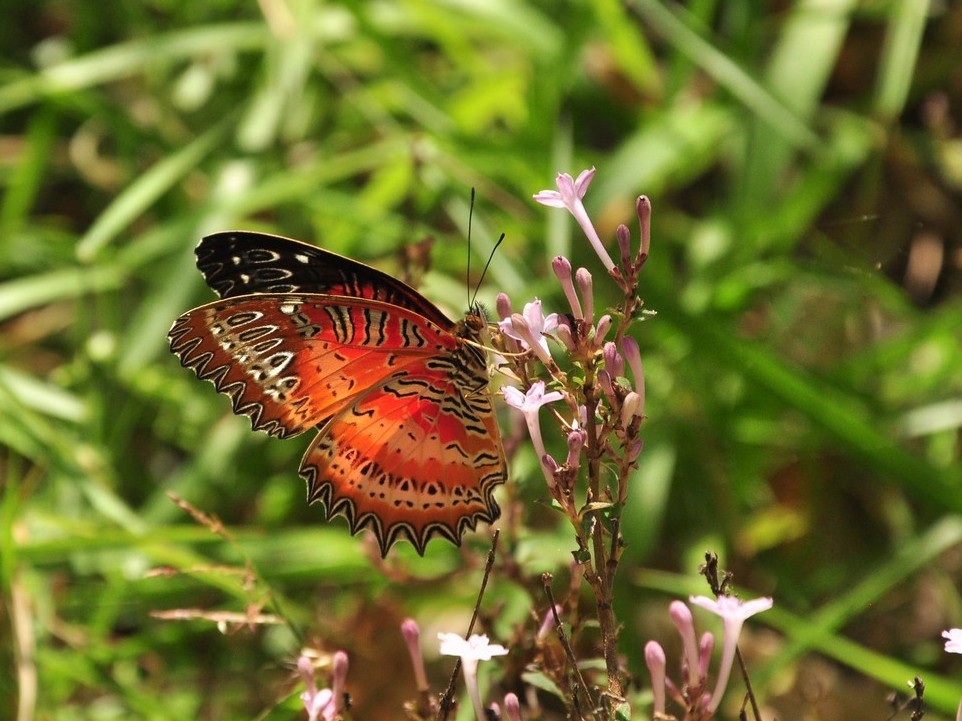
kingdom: Animalia
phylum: Arthropoda
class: Insecta
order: Lepidoptera
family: Nymphalidae
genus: Cethosia
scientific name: Cethosia cyane
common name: Leopard lacewing butterfly
